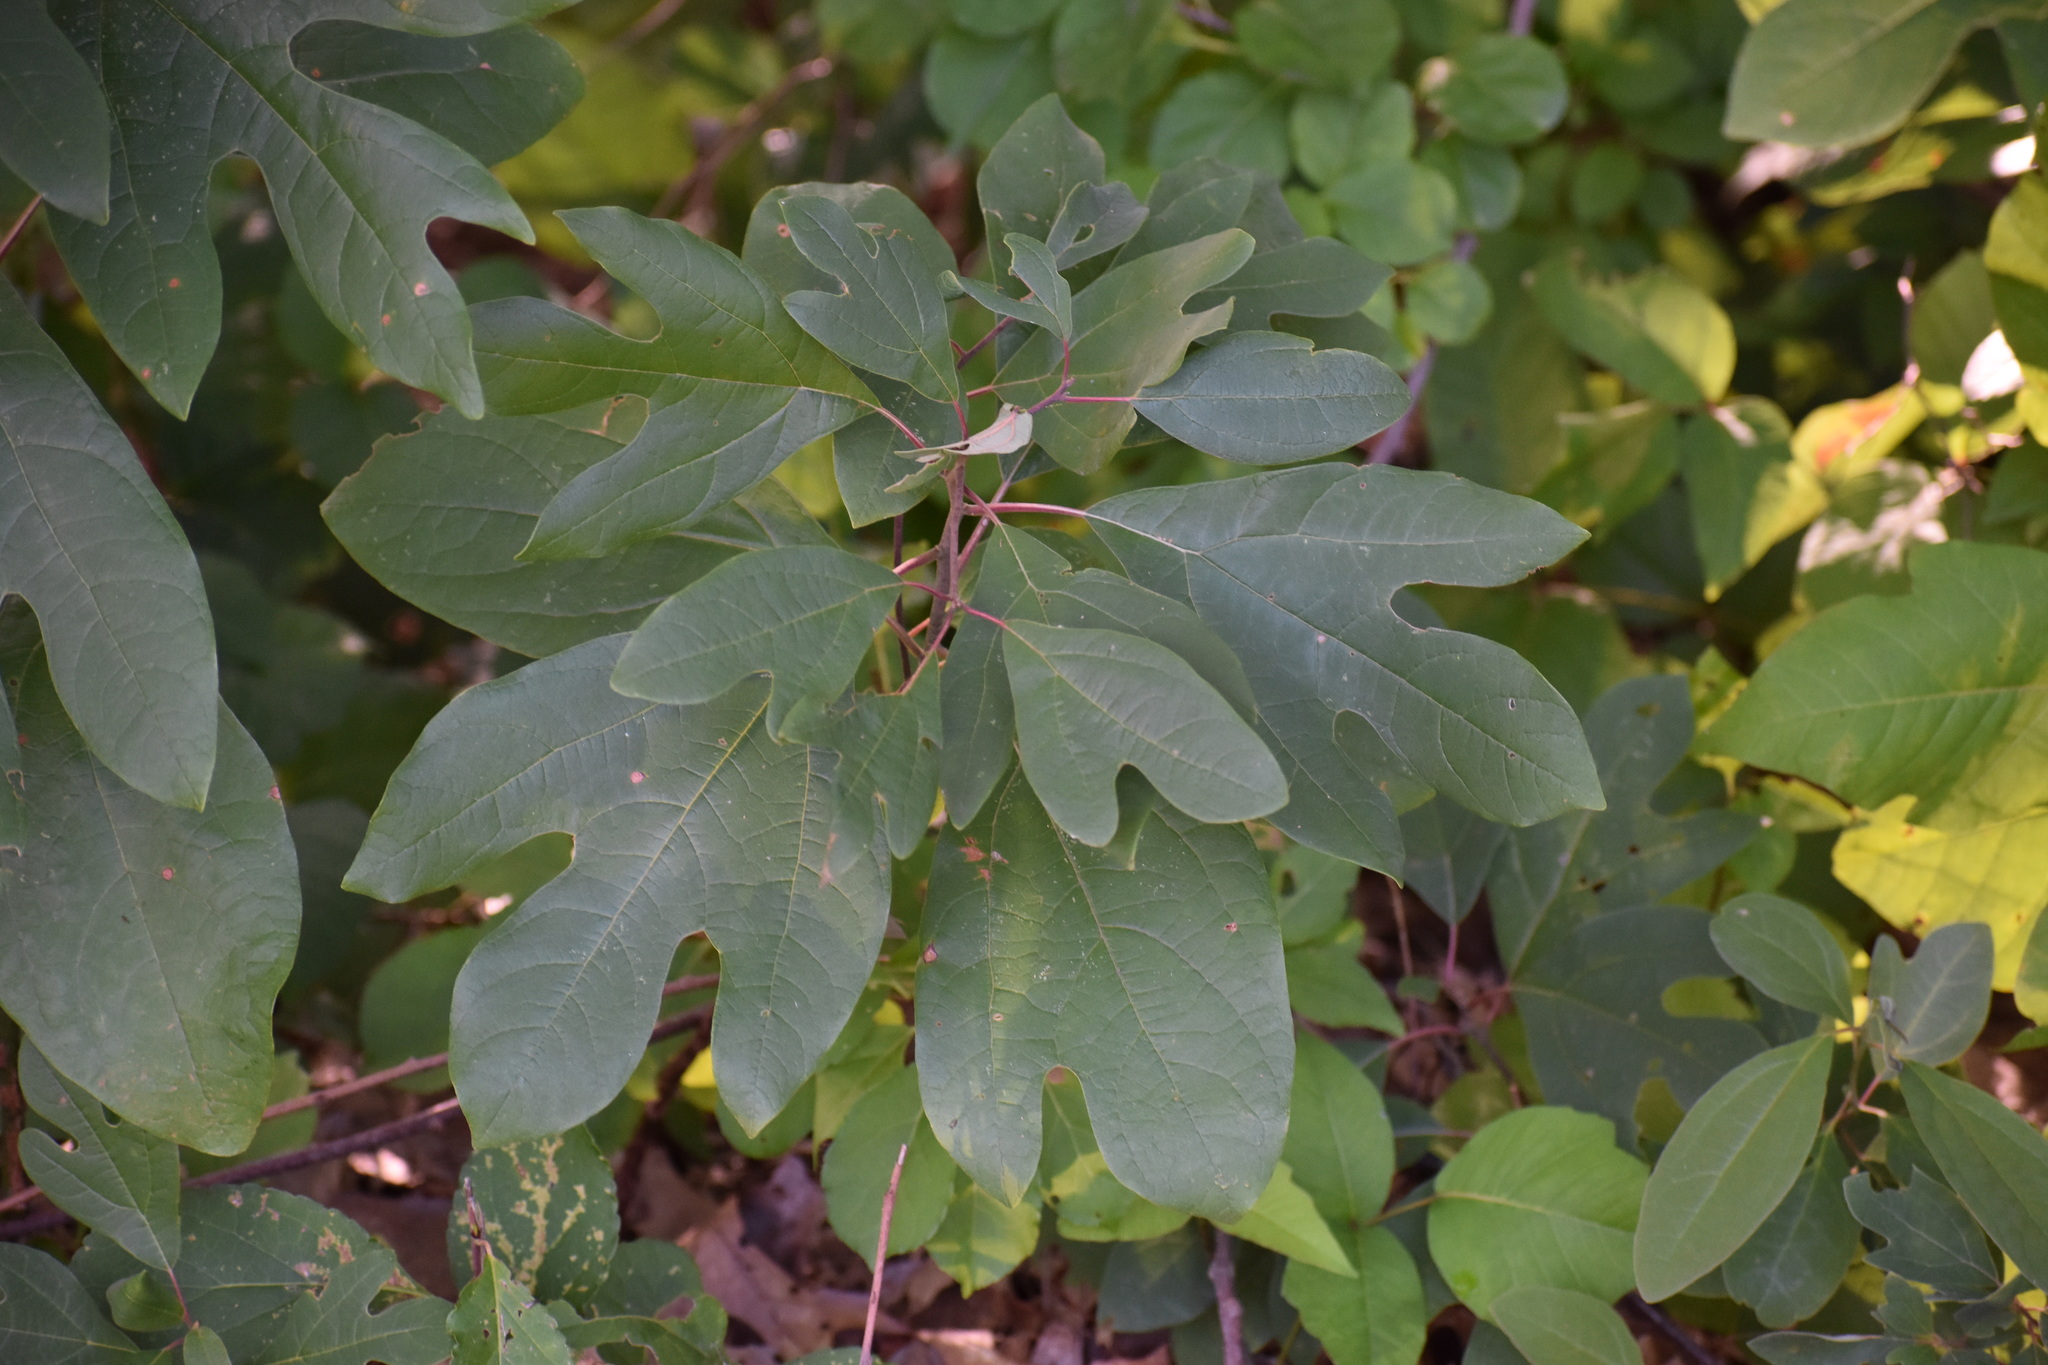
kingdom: Plantae
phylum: Tracheophyta
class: Magnoliopsida
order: Laurales
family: Lauraceae
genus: Sassafras
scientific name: Sassafras albidum
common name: Sassafras
